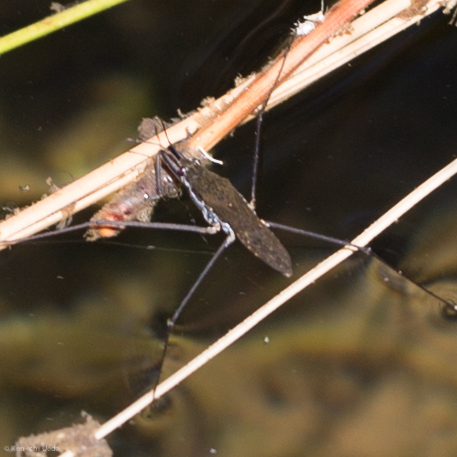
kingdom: Animalia
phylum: Arthropoda
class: Insecta
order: Hemiptera
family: Gerridae
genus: Aquarius
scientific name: Aquarius remigis
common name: Common water strider
